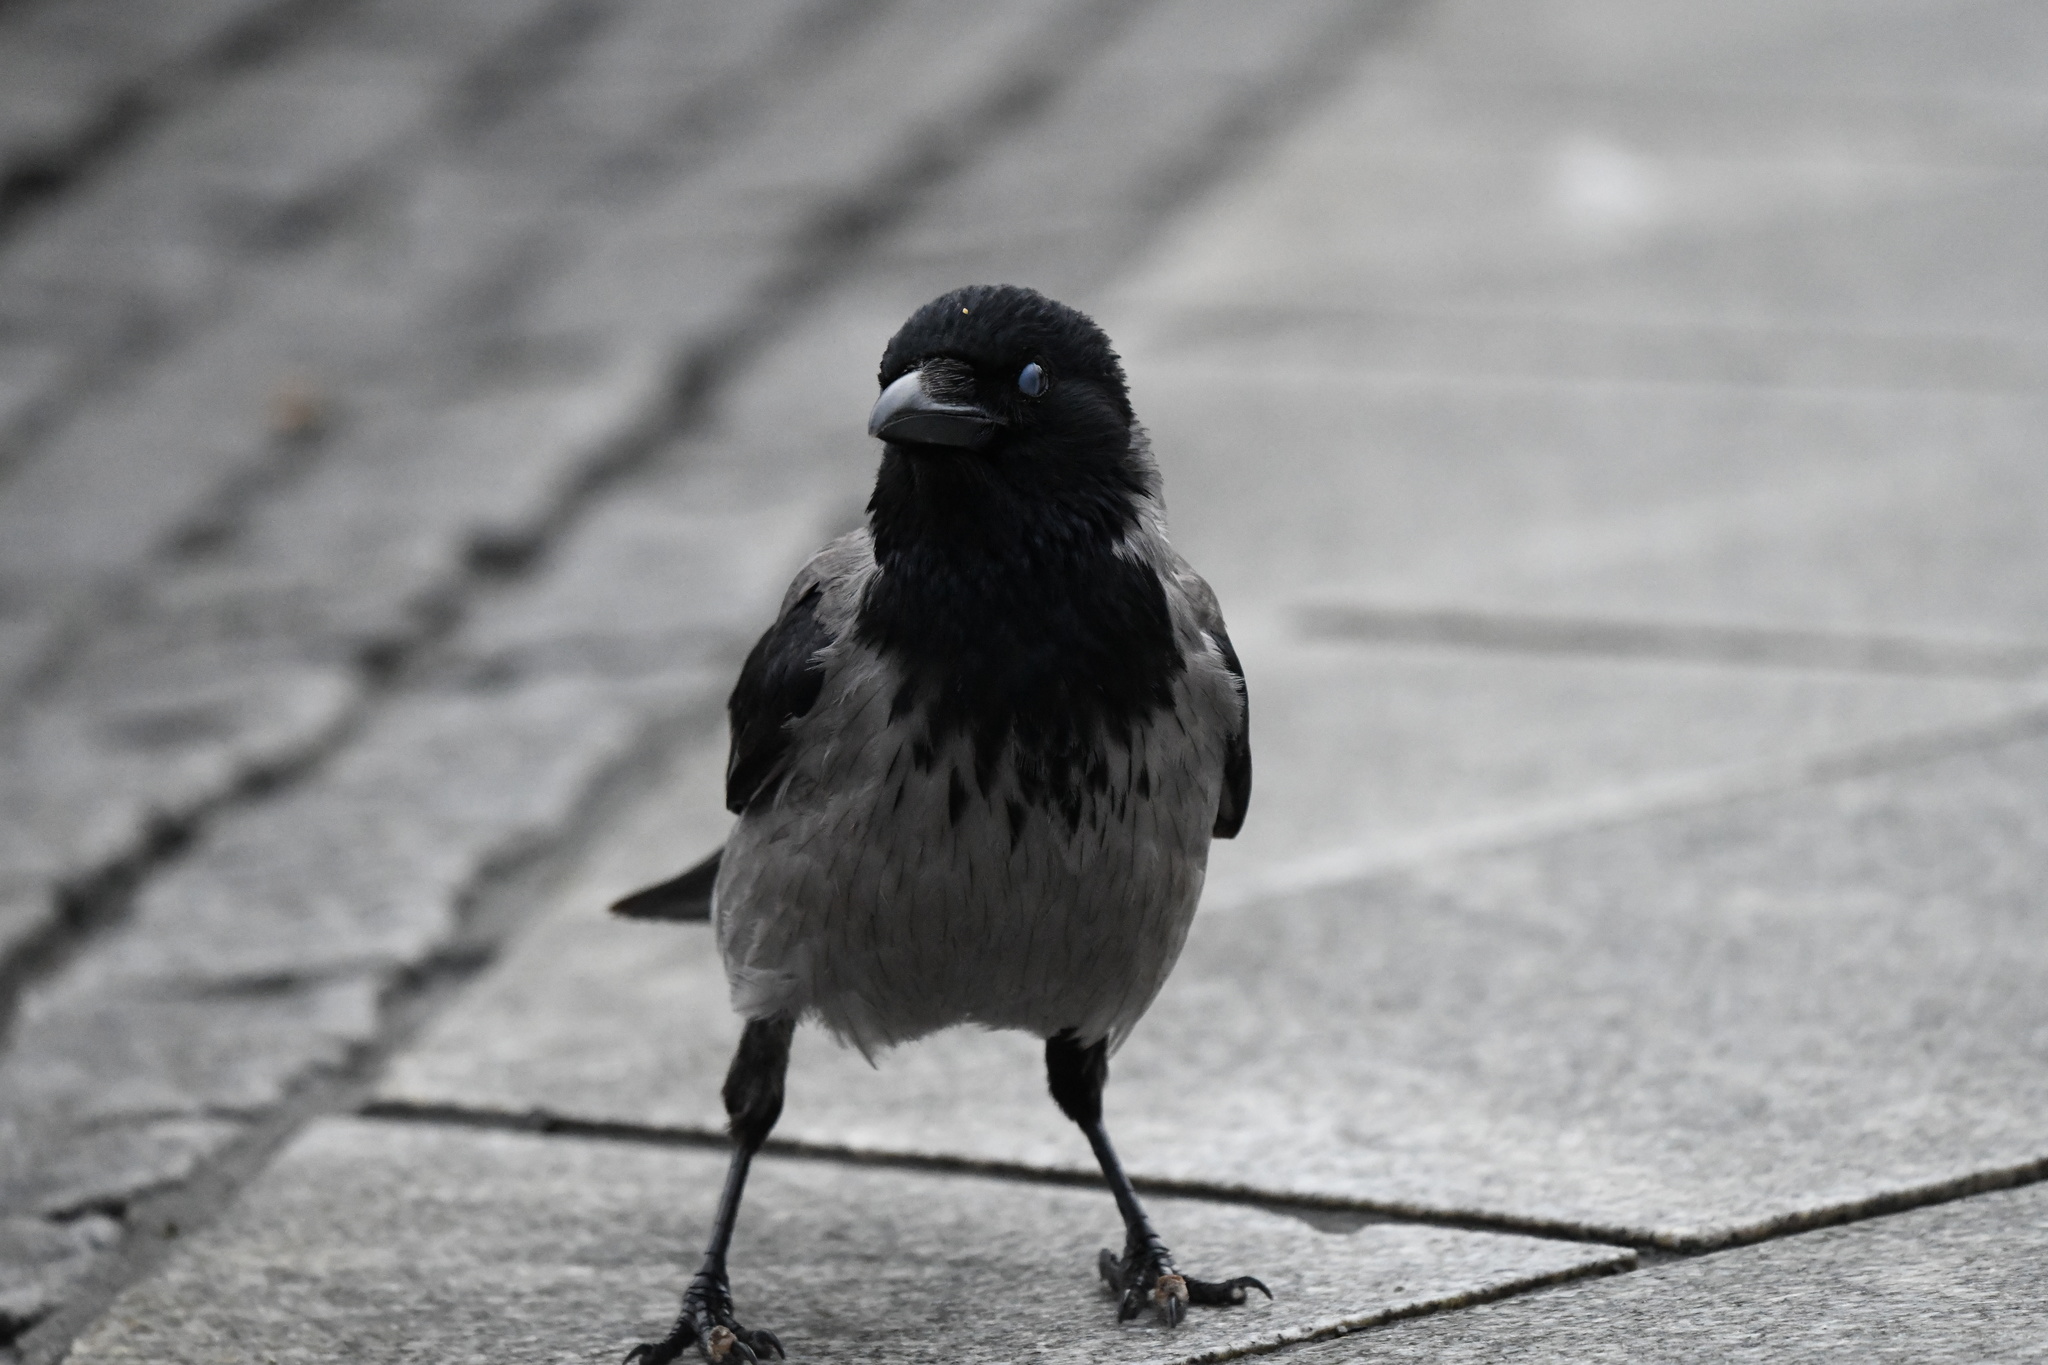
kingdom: Animalia
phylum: Chordata
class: Aves
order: Passeriformes
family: Corvidae
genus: Corvus
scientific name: Corvus cornix
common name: Hooded crow
